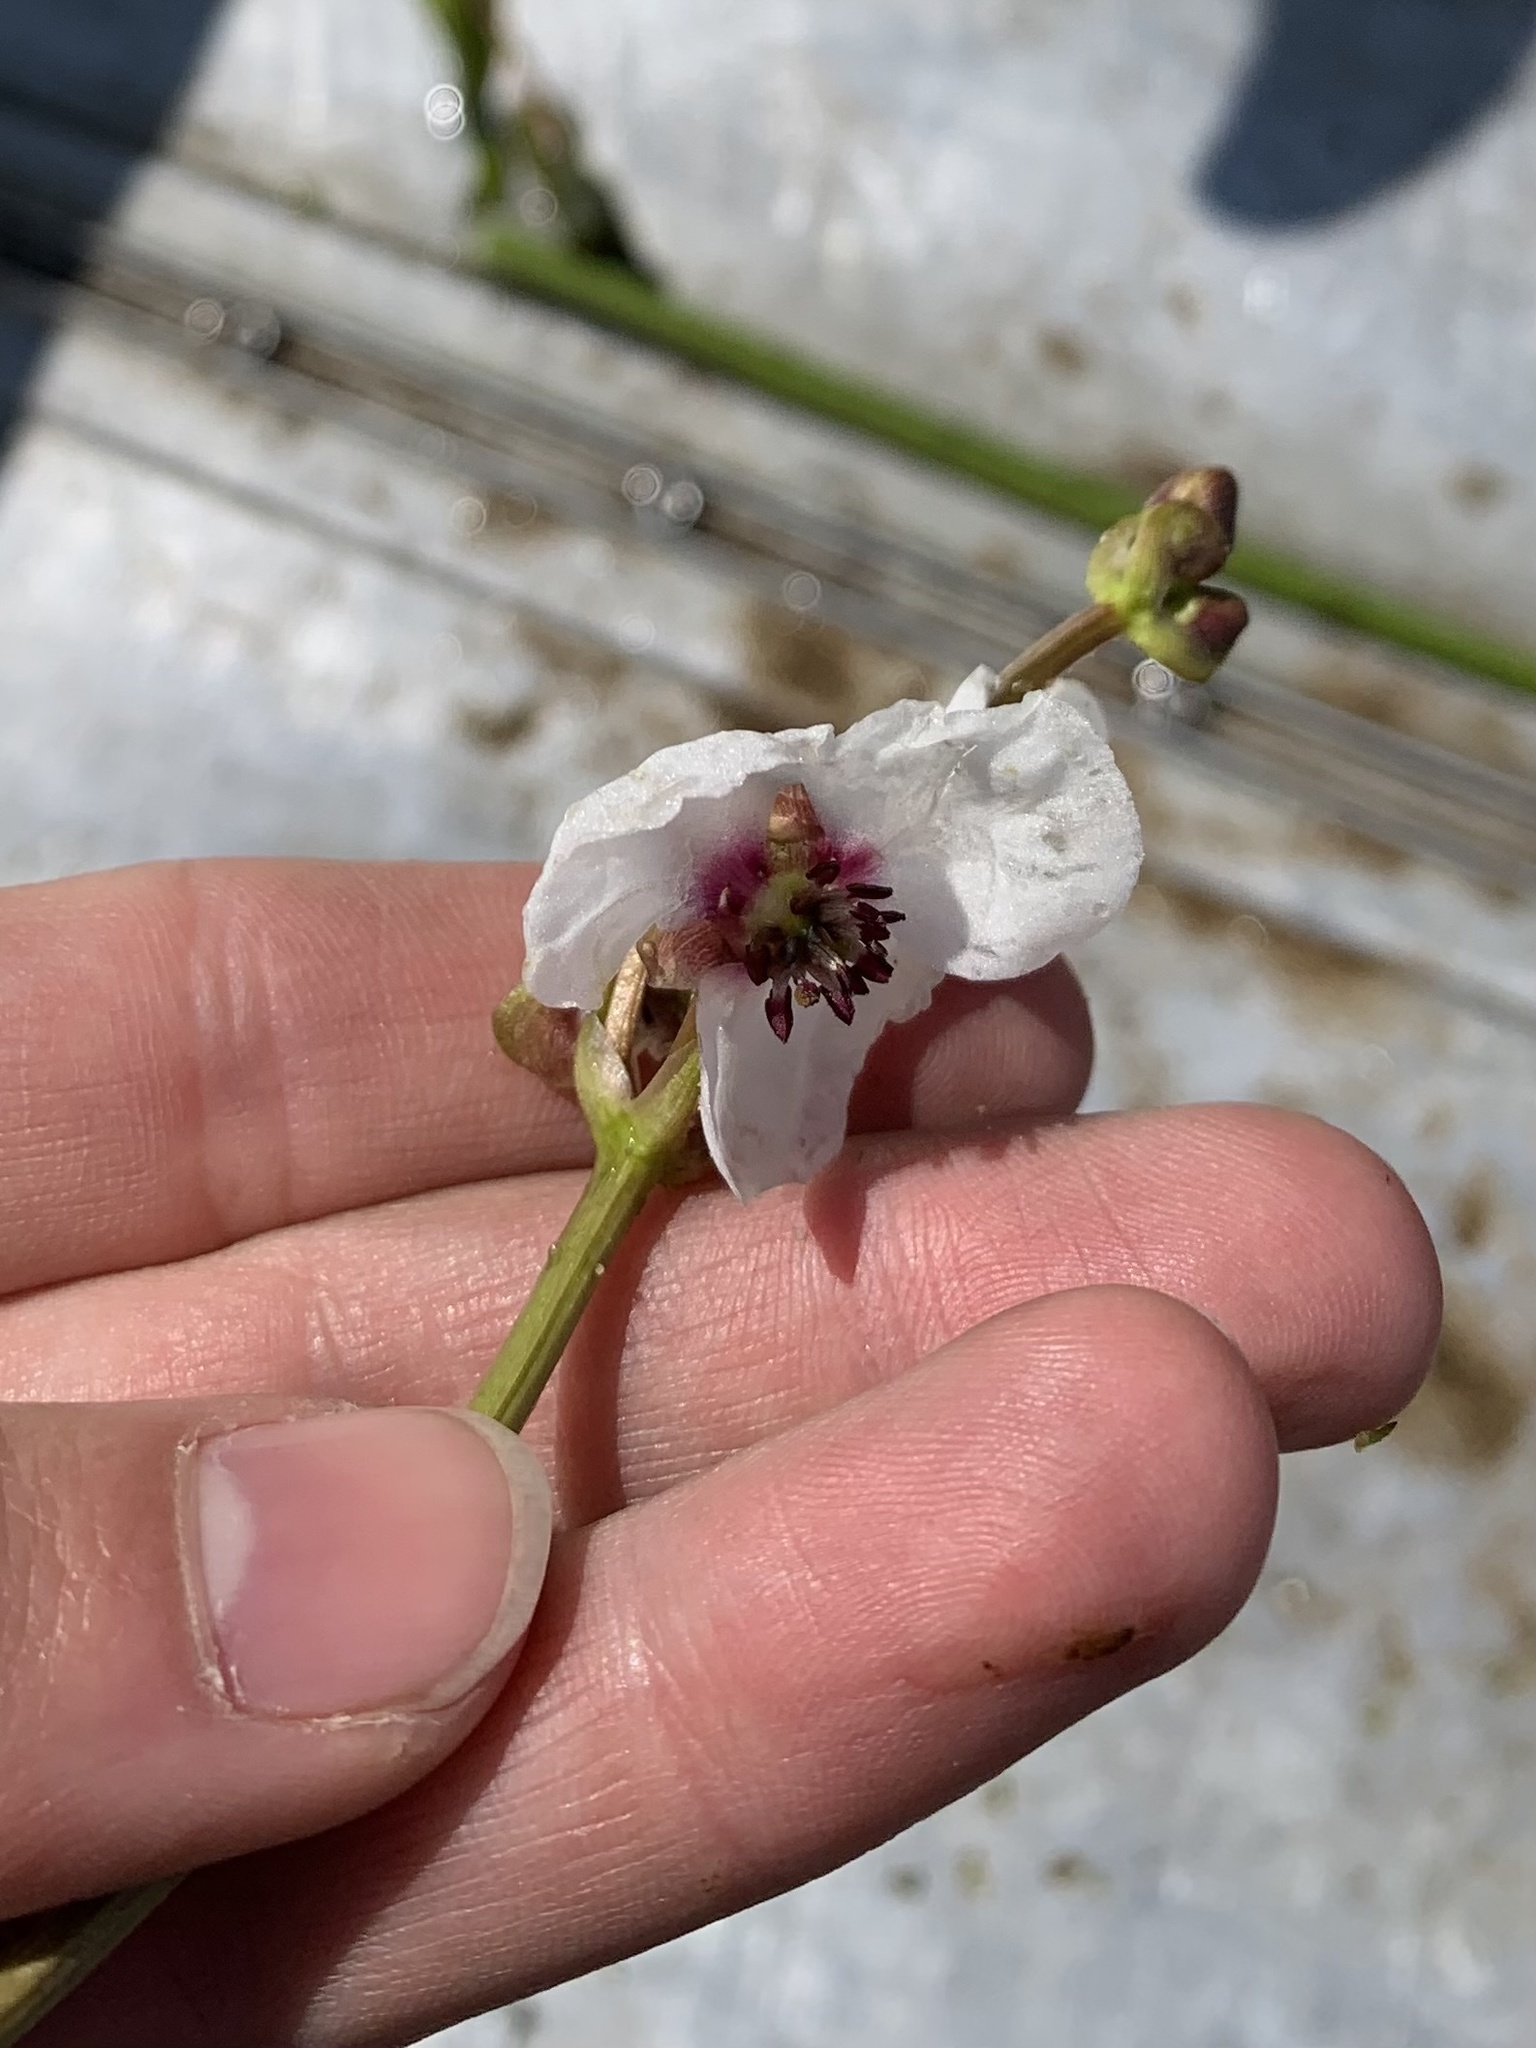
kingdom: Plantae
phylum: Tracheophyta
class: Liliopsida
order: Alismatales
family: Alismataceae
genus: Sagittaria
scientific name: Sagittaria sagittifolia
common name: Arrowhead
